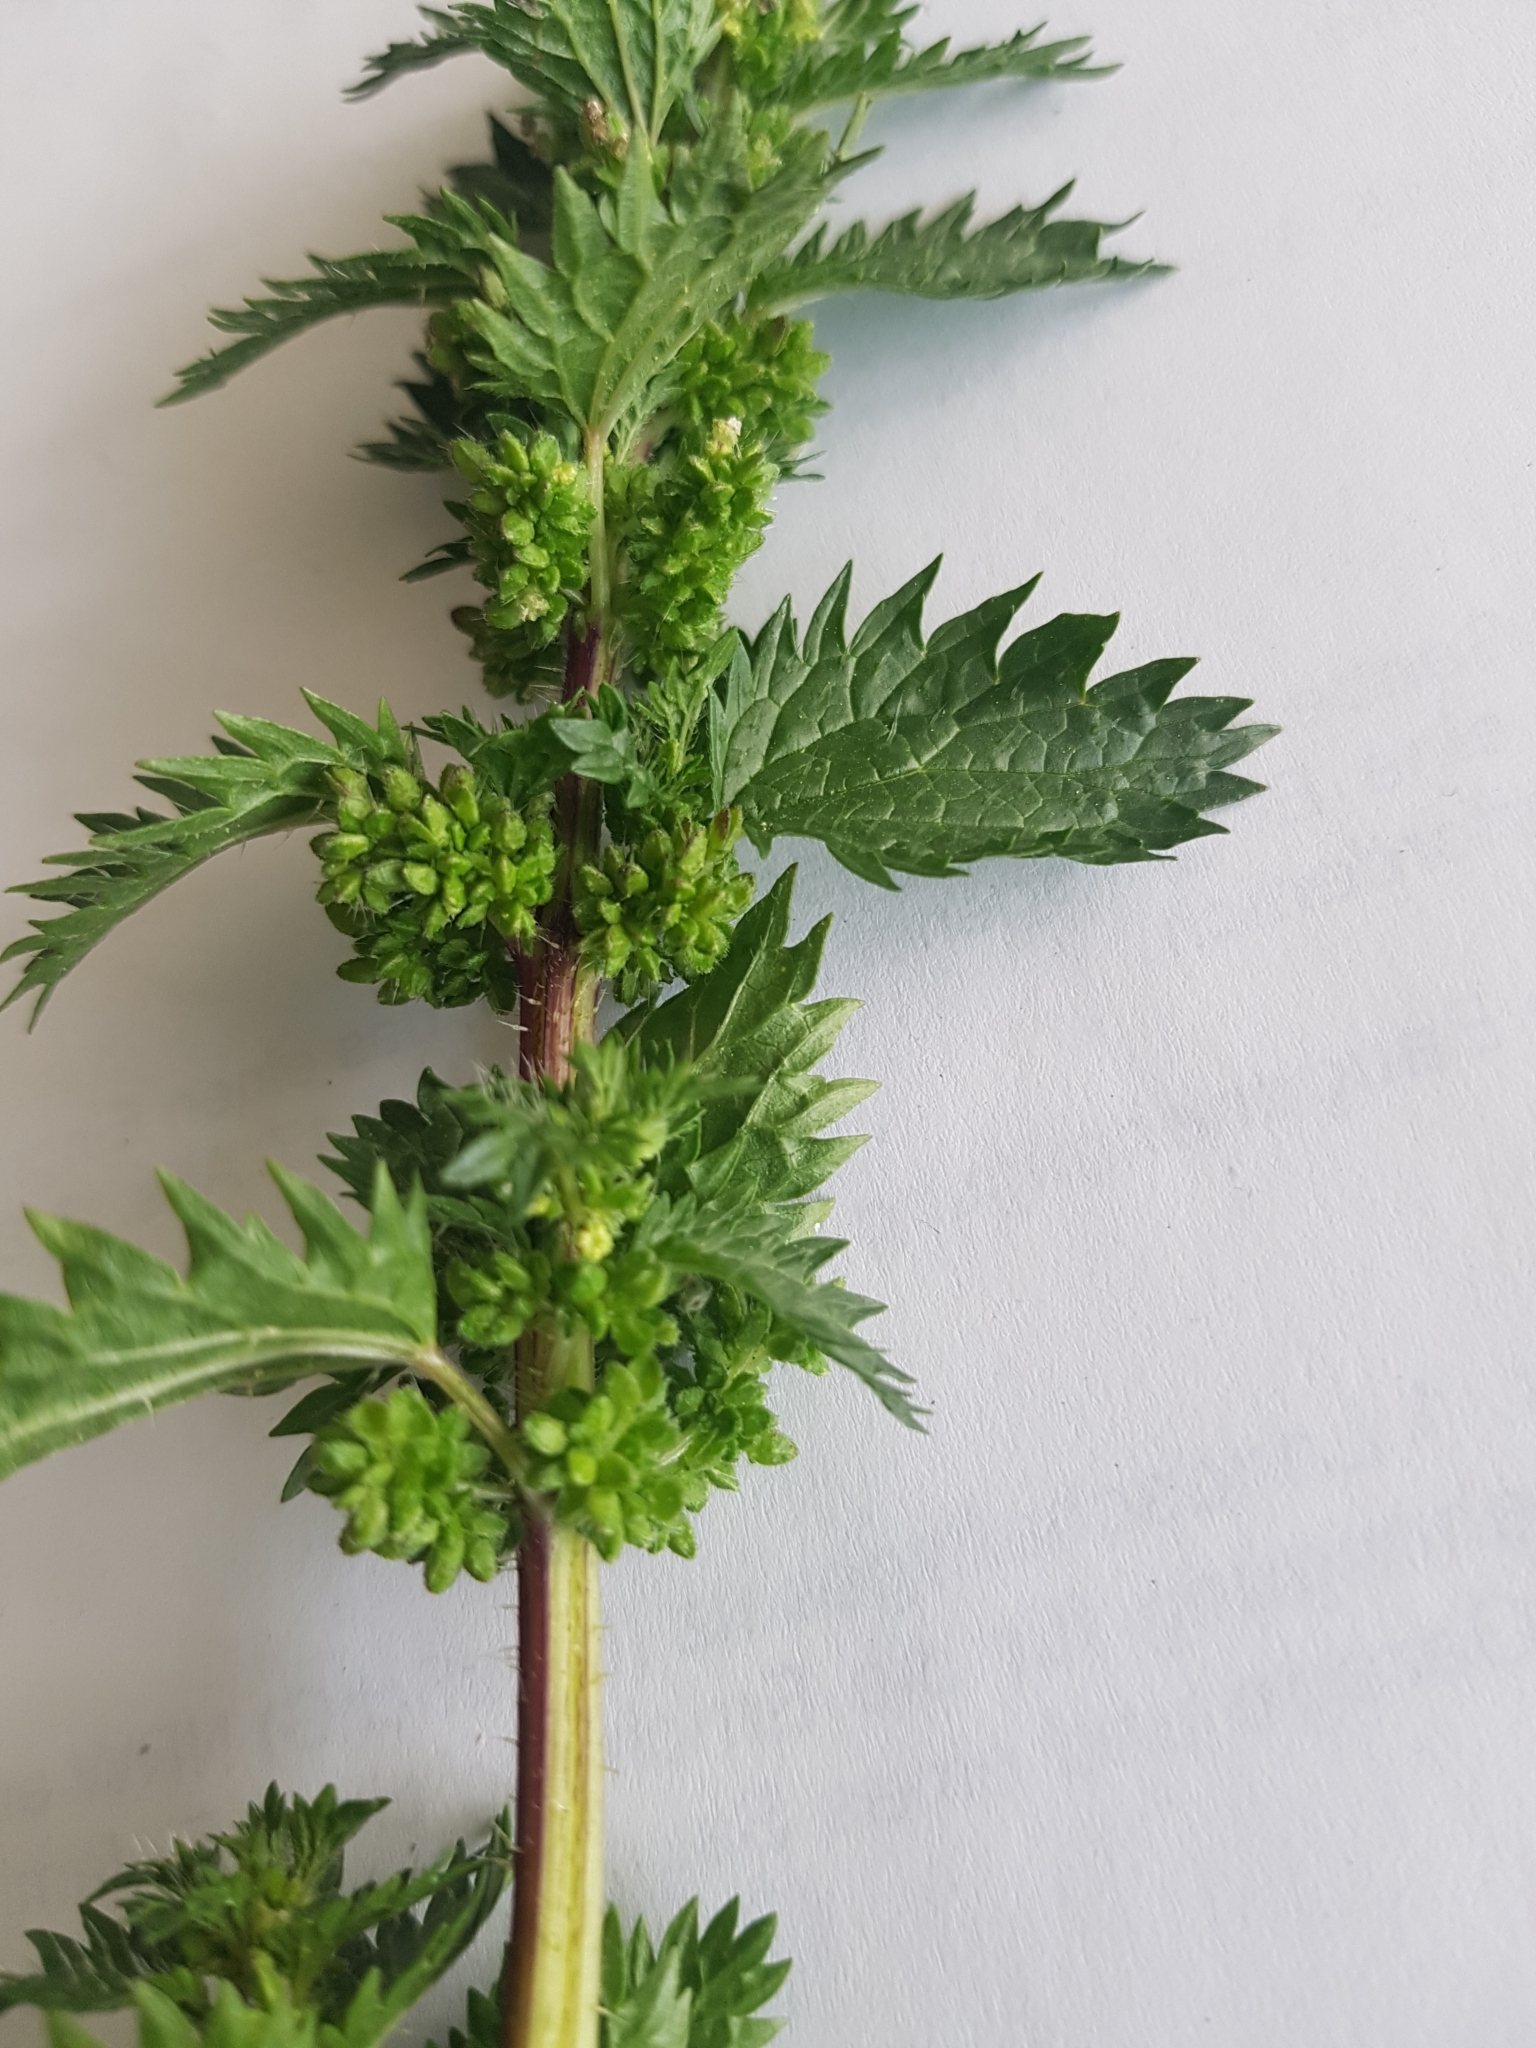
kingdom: Plantae
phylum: Tracheophyta
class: Magnoliopsida
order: Rosales
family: Urticaceae
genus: Urtica
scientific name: Urtica urens
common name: Dwarf nettle
